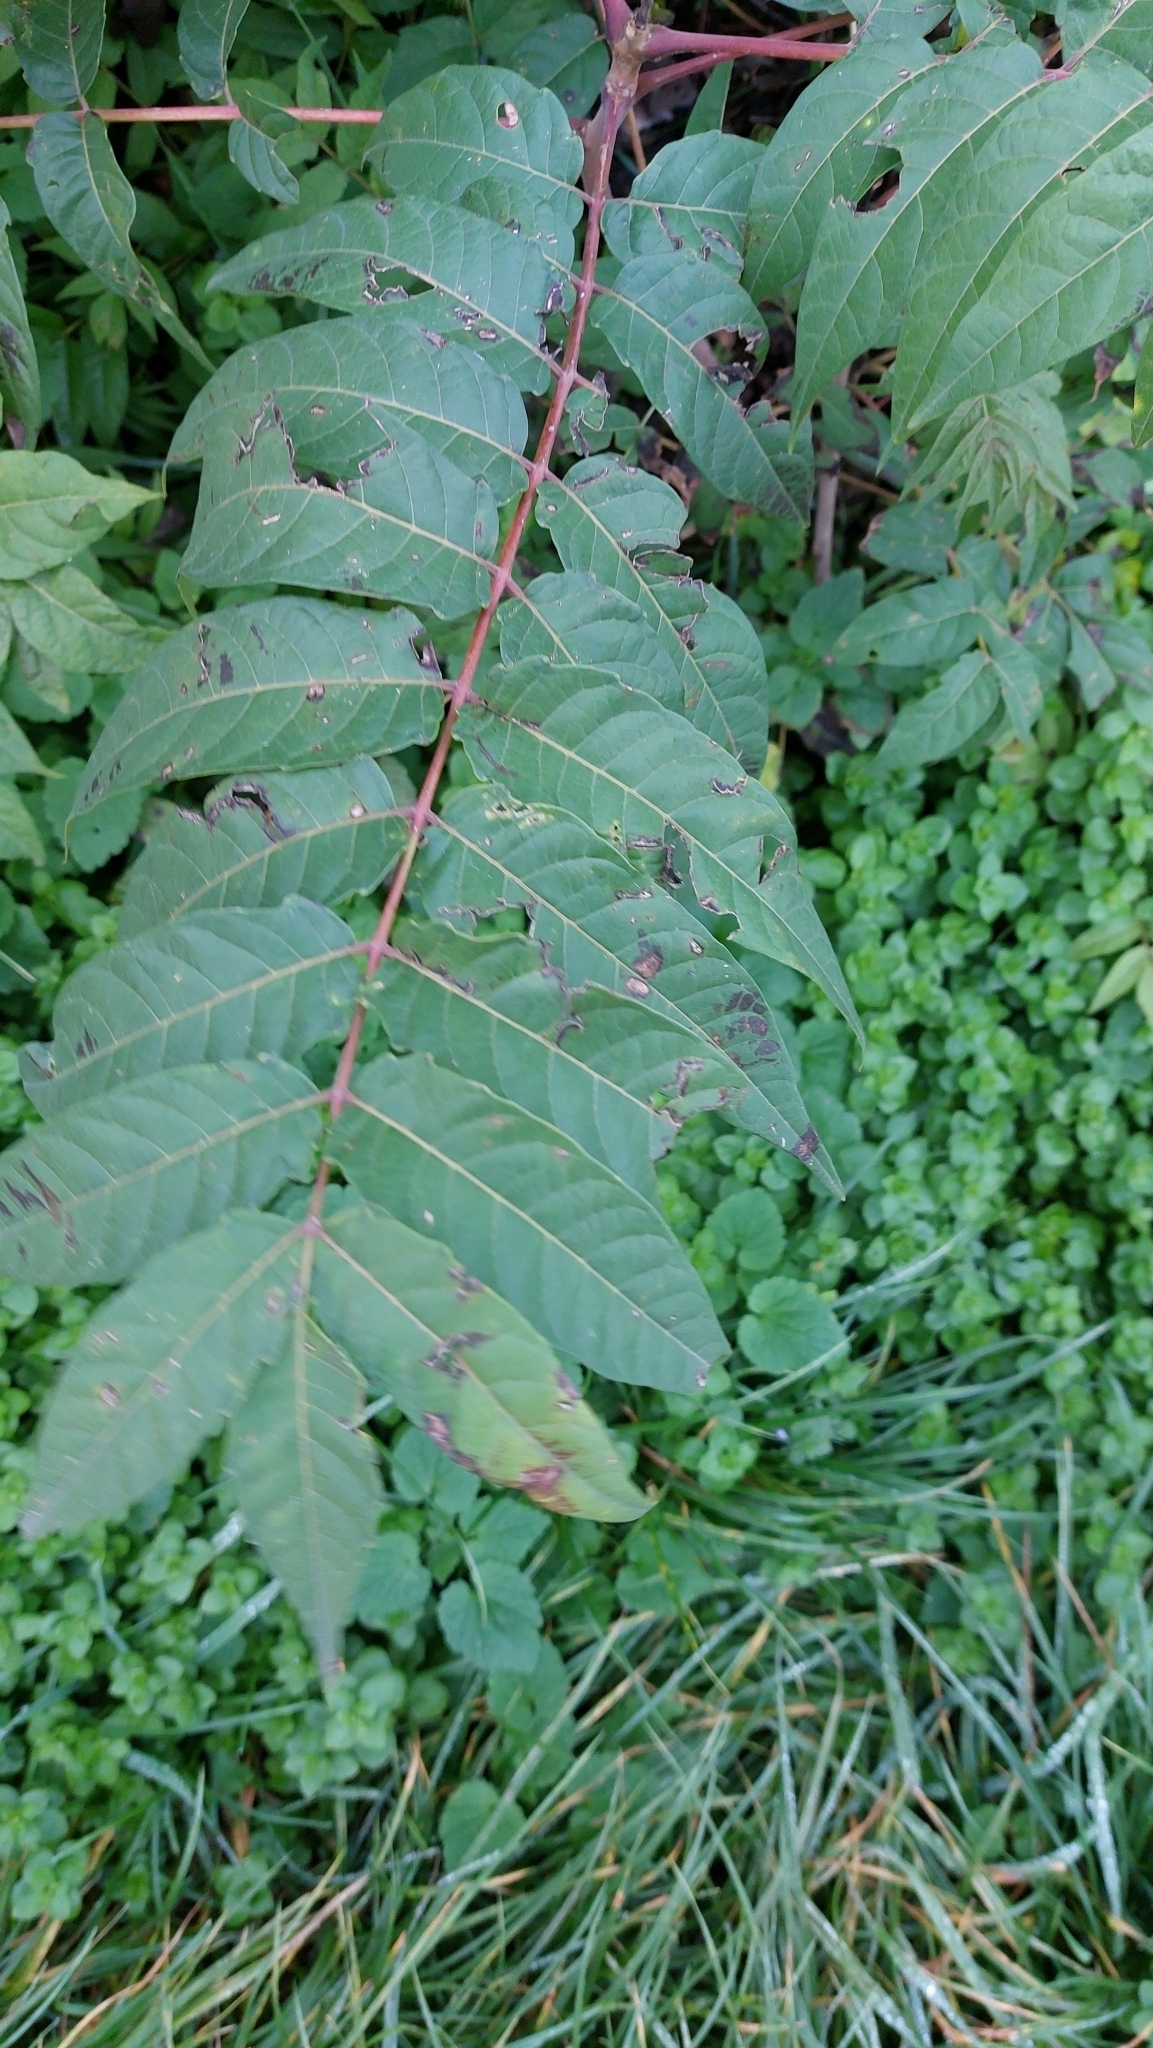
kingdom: Plantae
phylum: Tracheophyta
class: Magnoliopsida
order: Sapindales
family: Simaroubaceae
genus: Ailanthus
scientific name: Ailanthus altissima
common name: Tree-of-heaven
